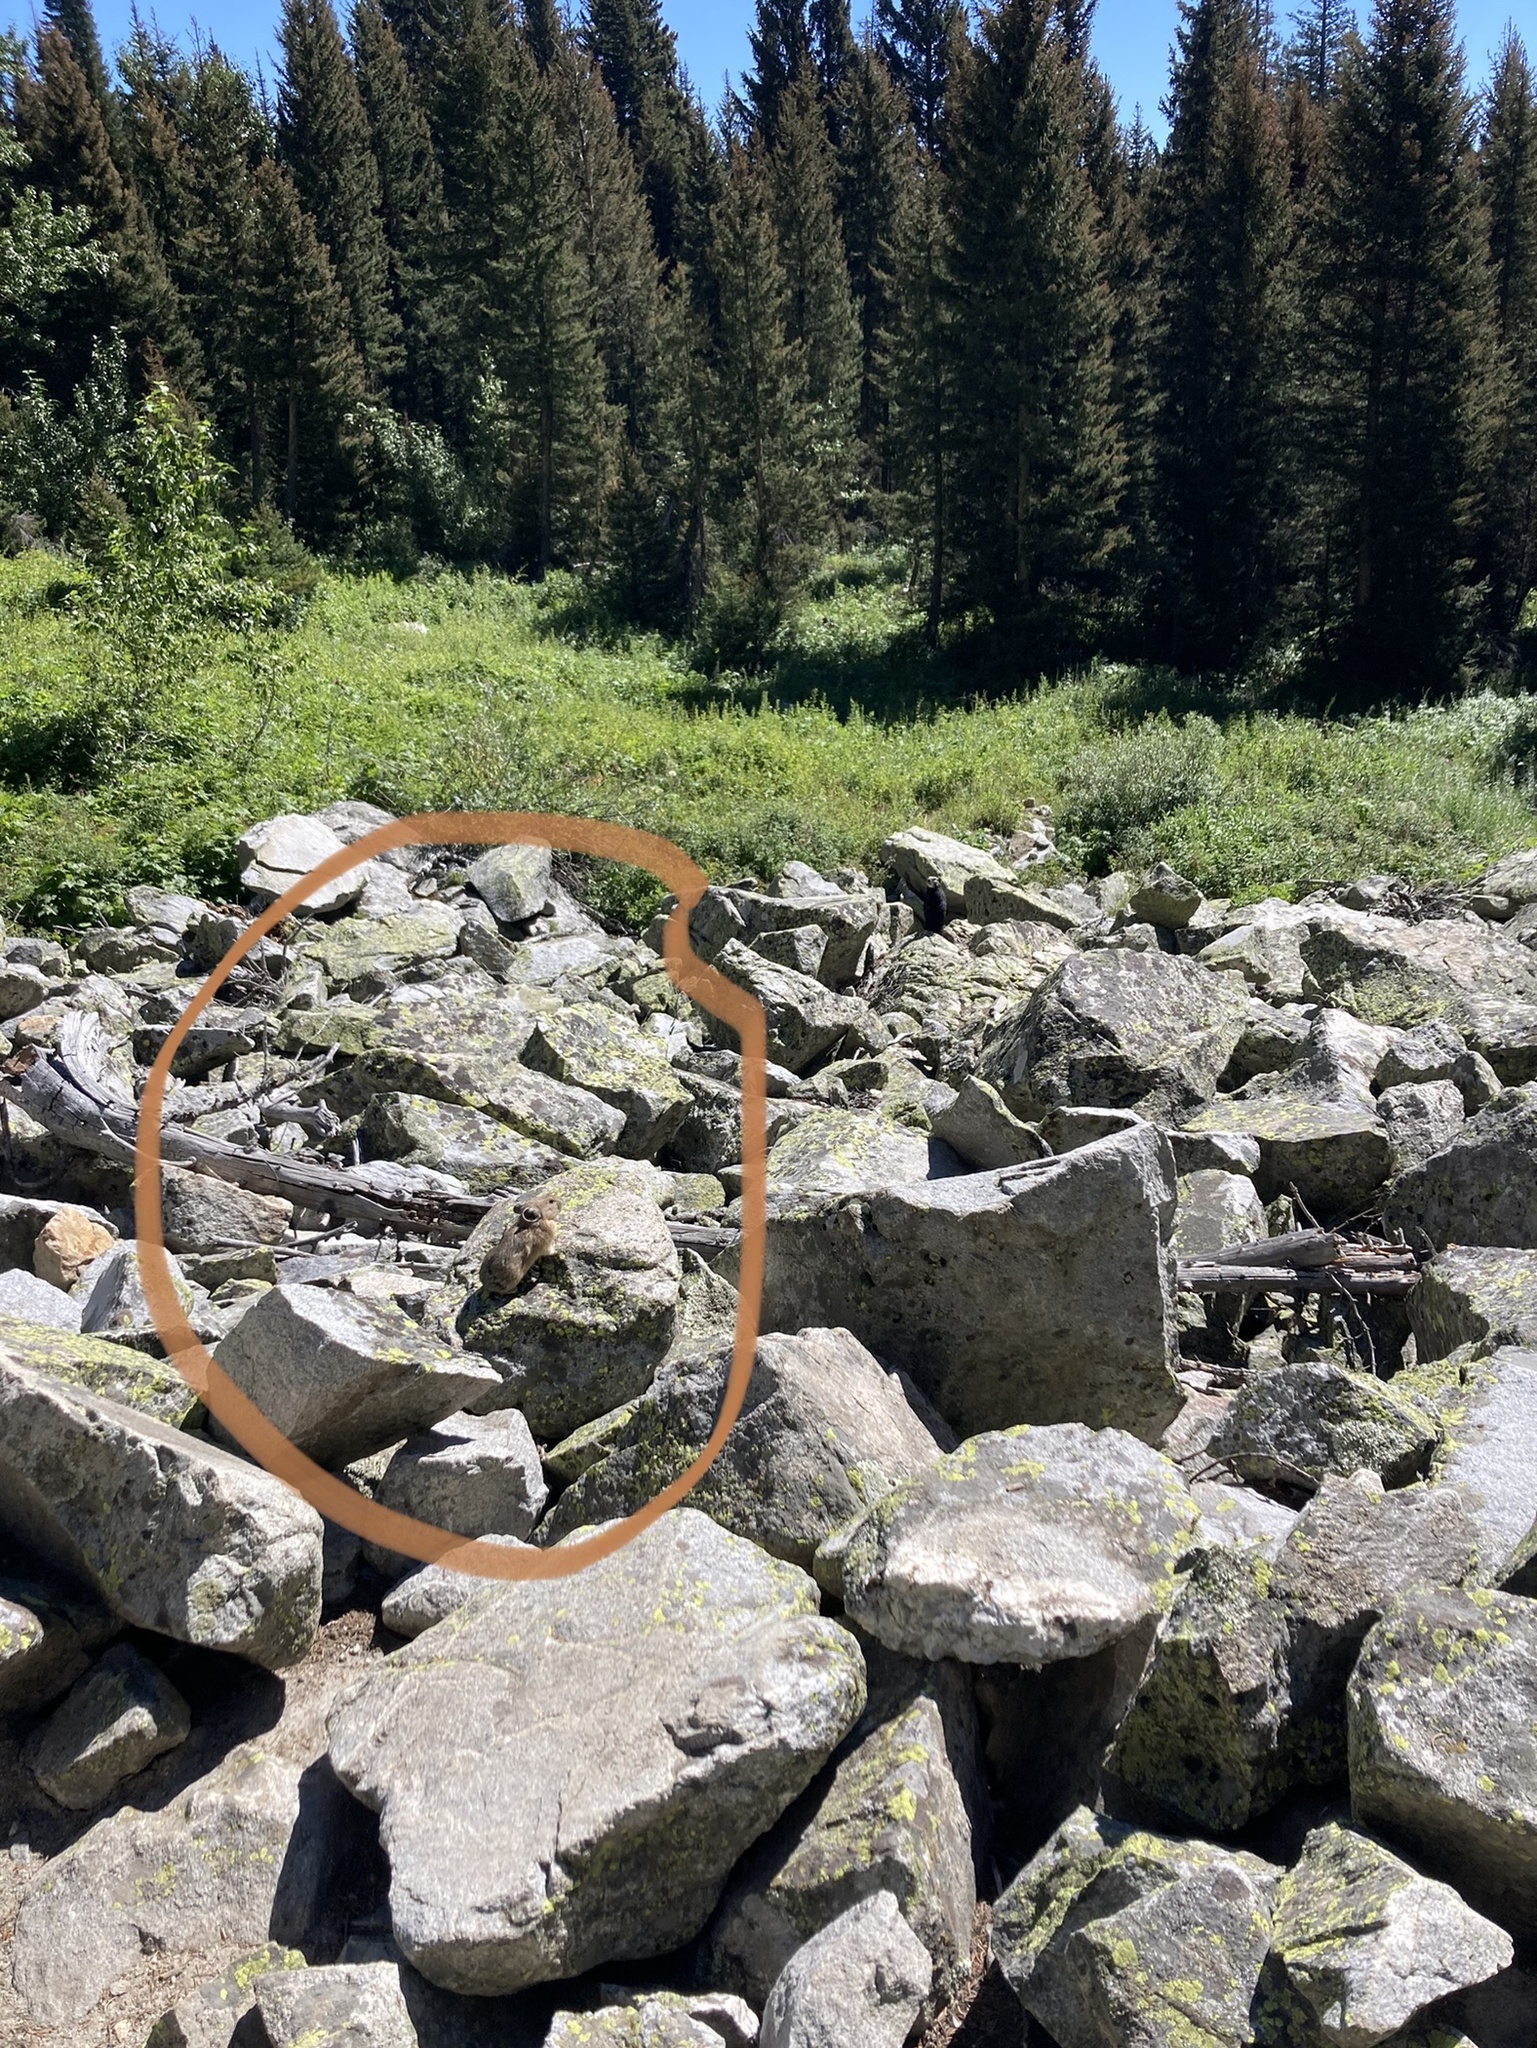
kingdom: Animalia
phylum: Chordata
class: Mammalia
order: Lagomorpha
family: Ochotonidae
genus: Ochotona
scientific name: Ochotona princeps
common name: American pika
